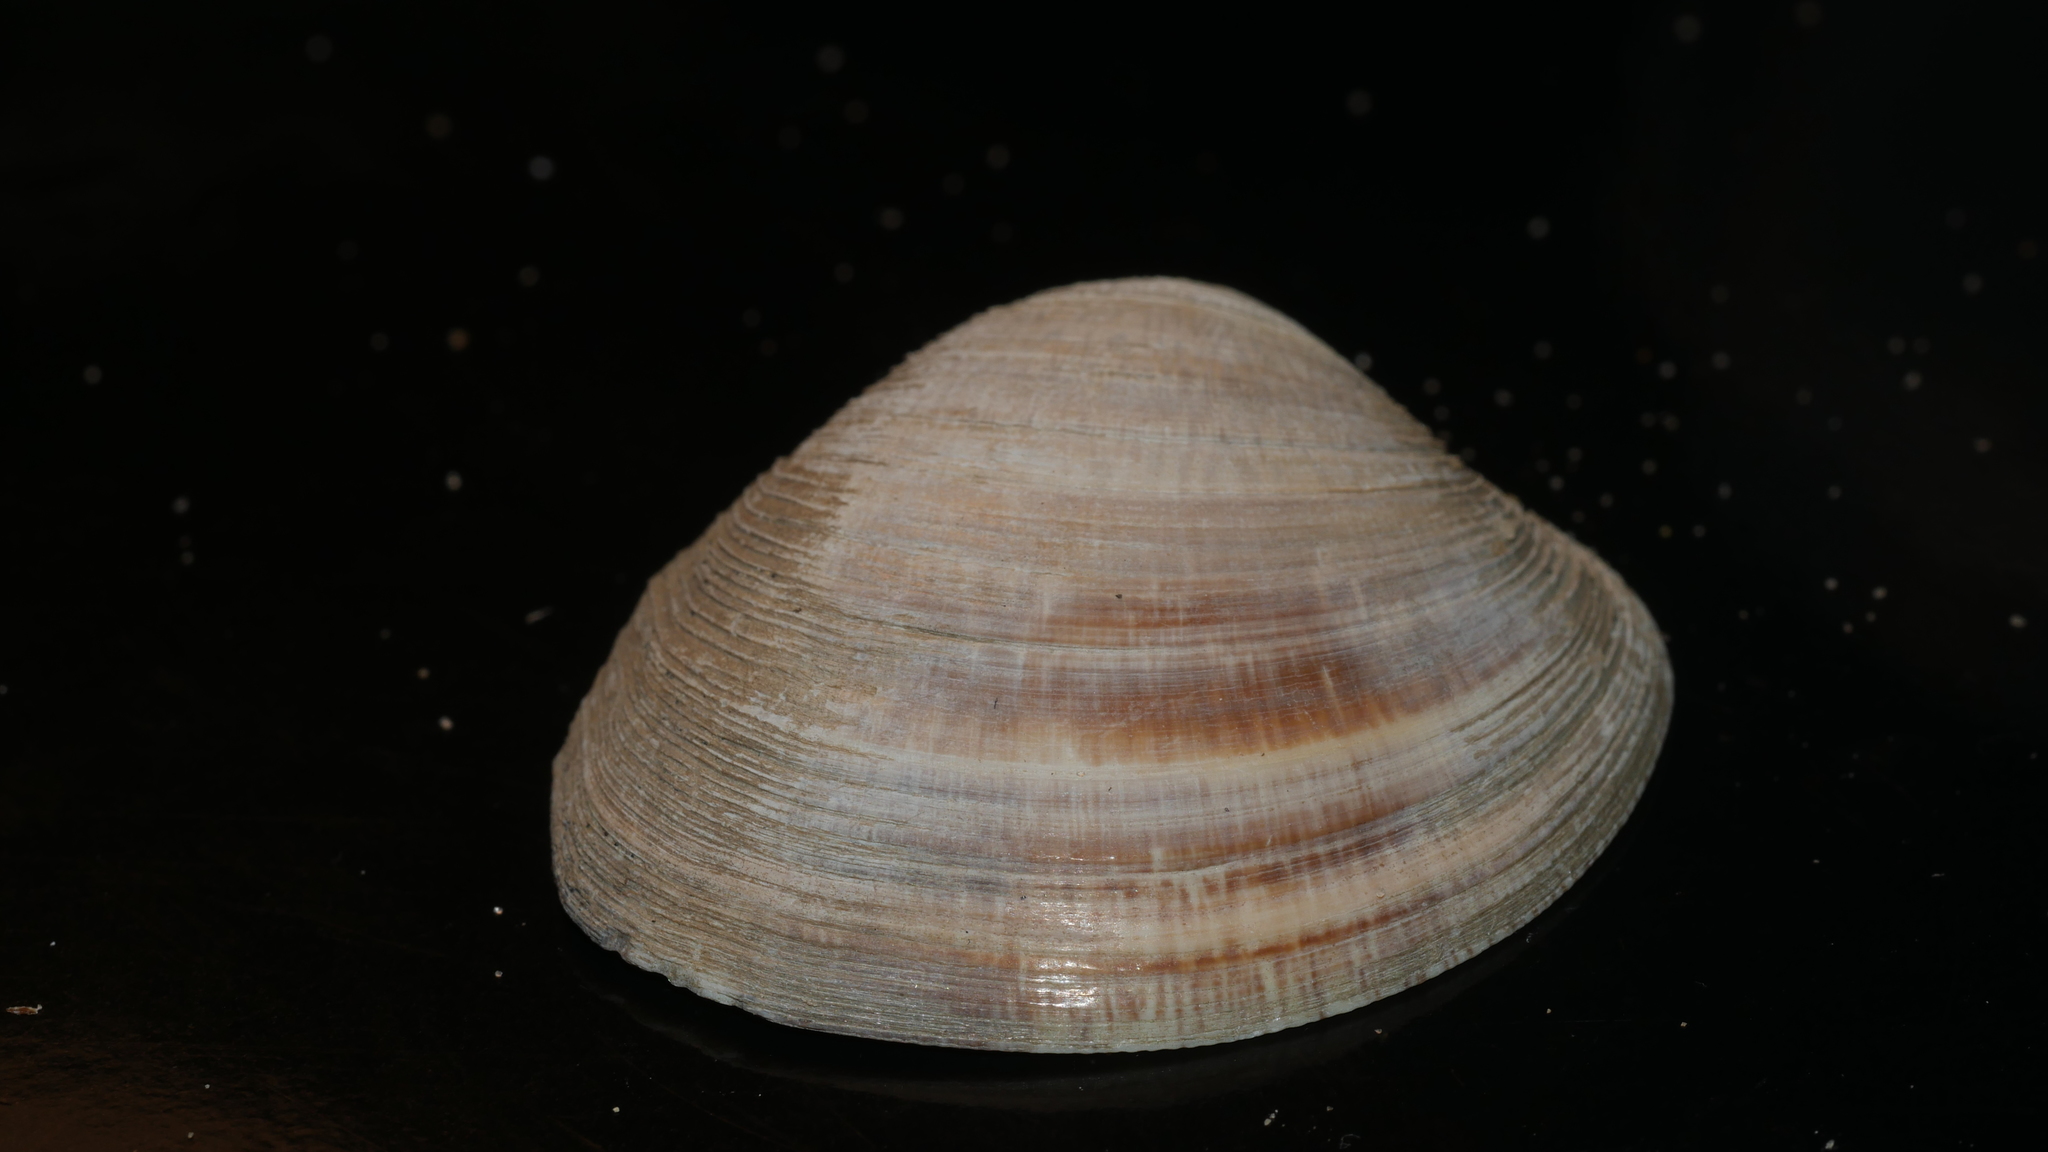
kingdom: Animalia
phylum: Mollusca
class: Bivalvia
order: Venerida
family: Veneridae
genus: Mercenaria
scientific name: Mercenaria mercenaria
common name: American hard-shelled clam
